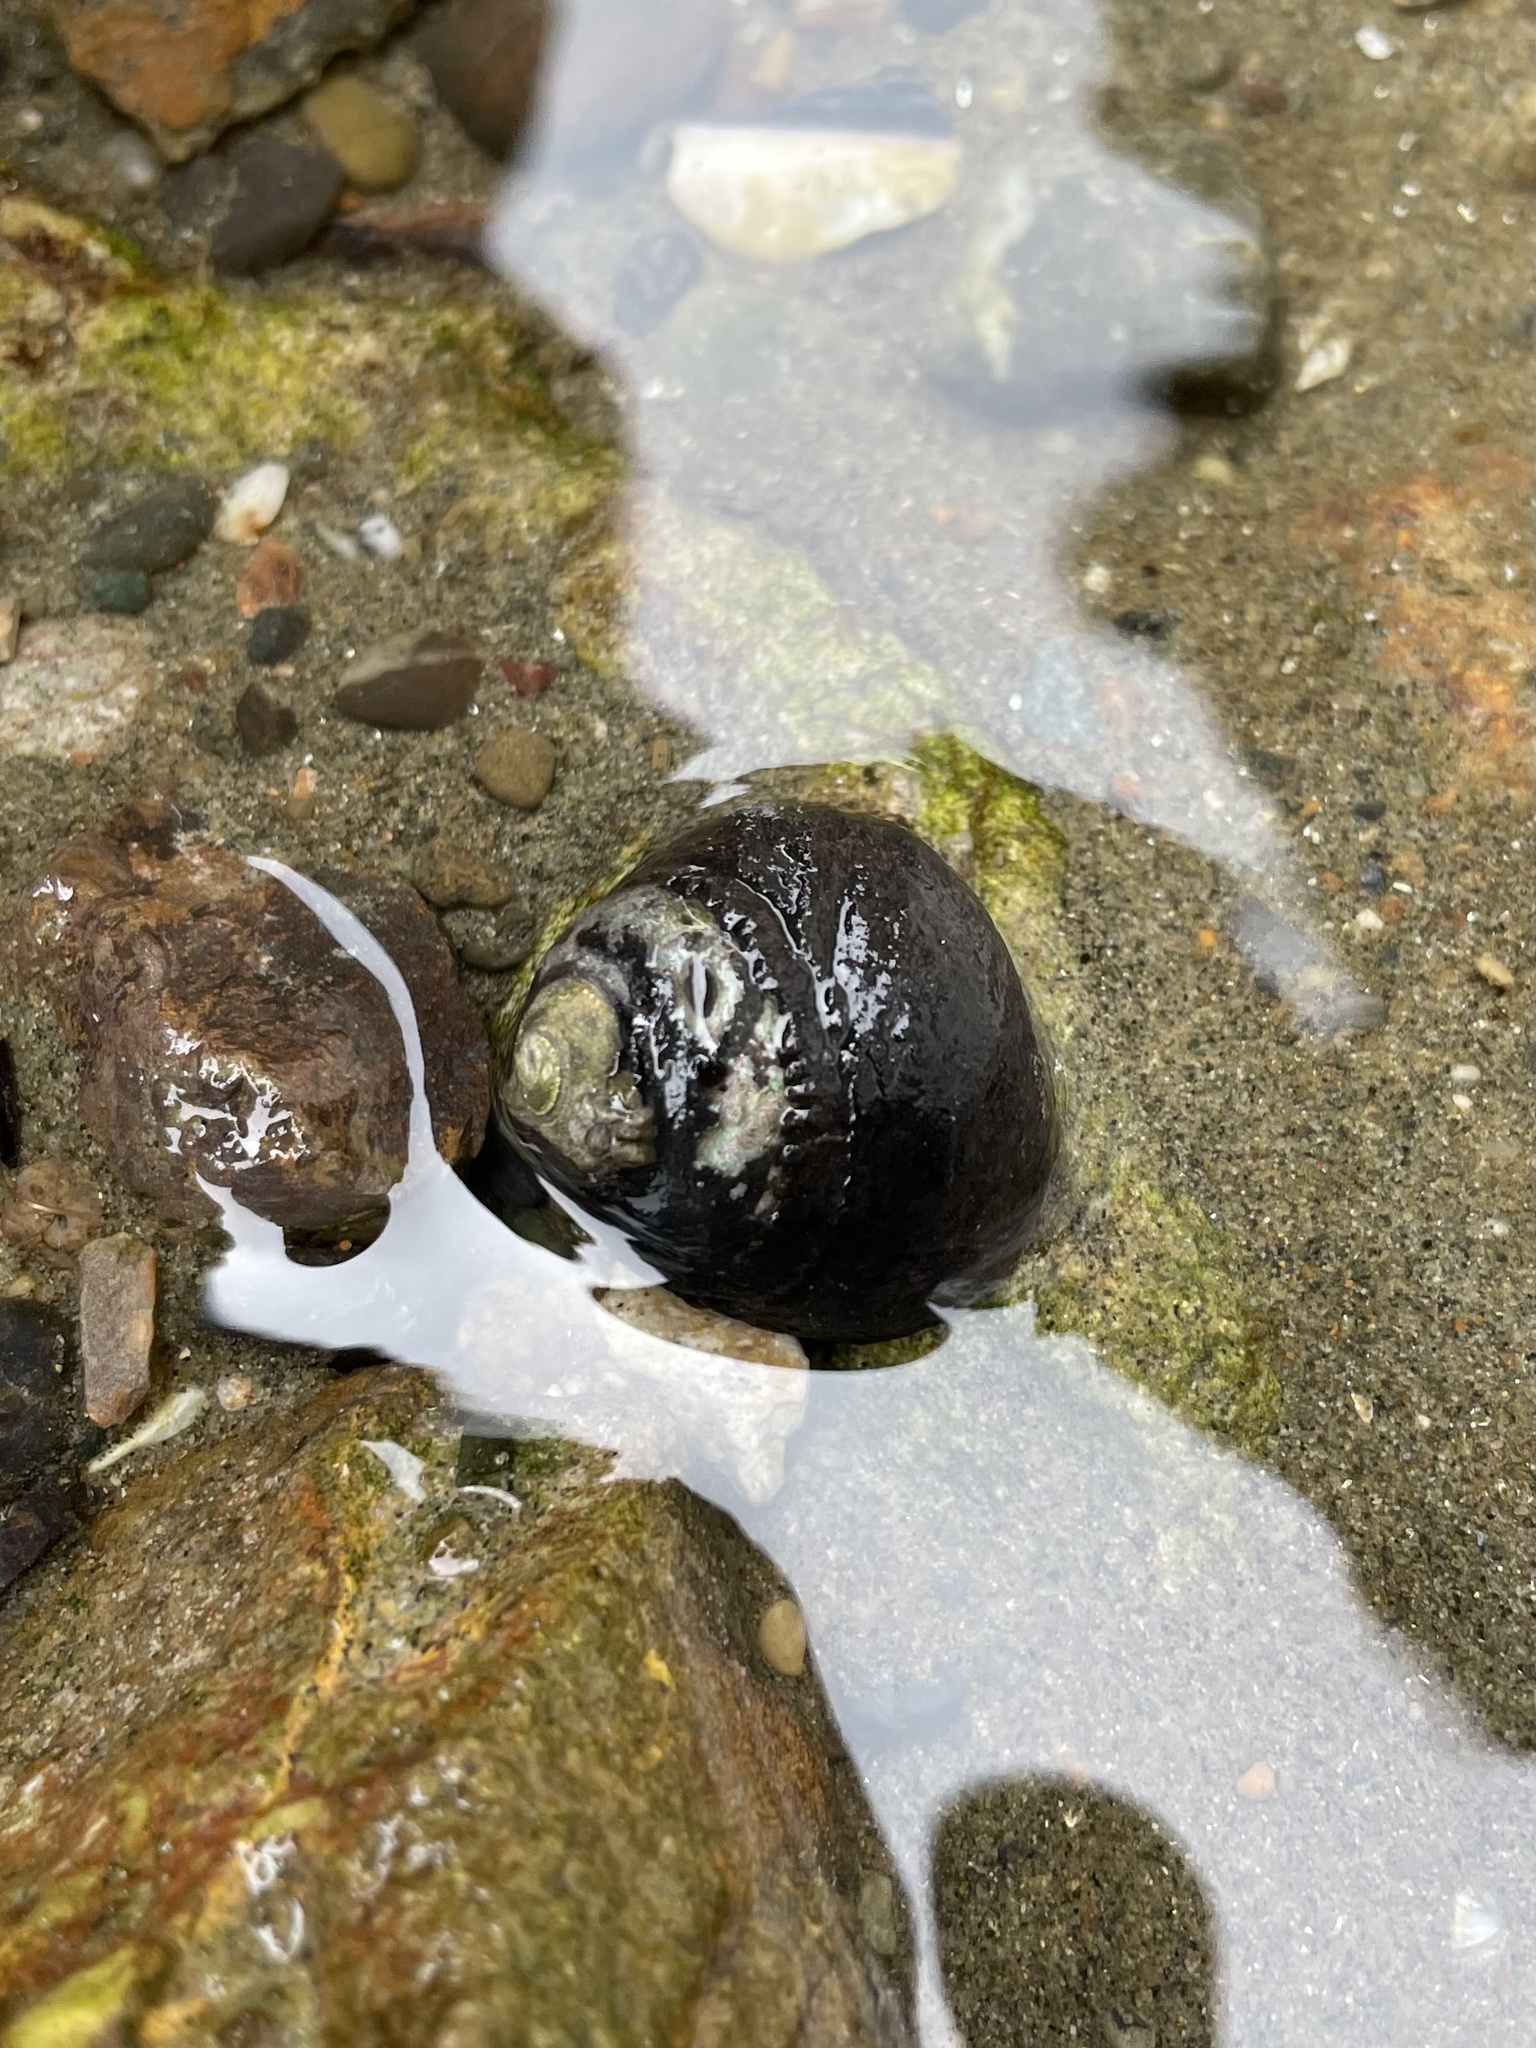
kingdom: Animalia
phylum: Mollusca
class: Gastropoda
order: Trochida
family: Tegulidae
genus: Tegula
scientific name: Tegula funebralis
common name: Black tegula
